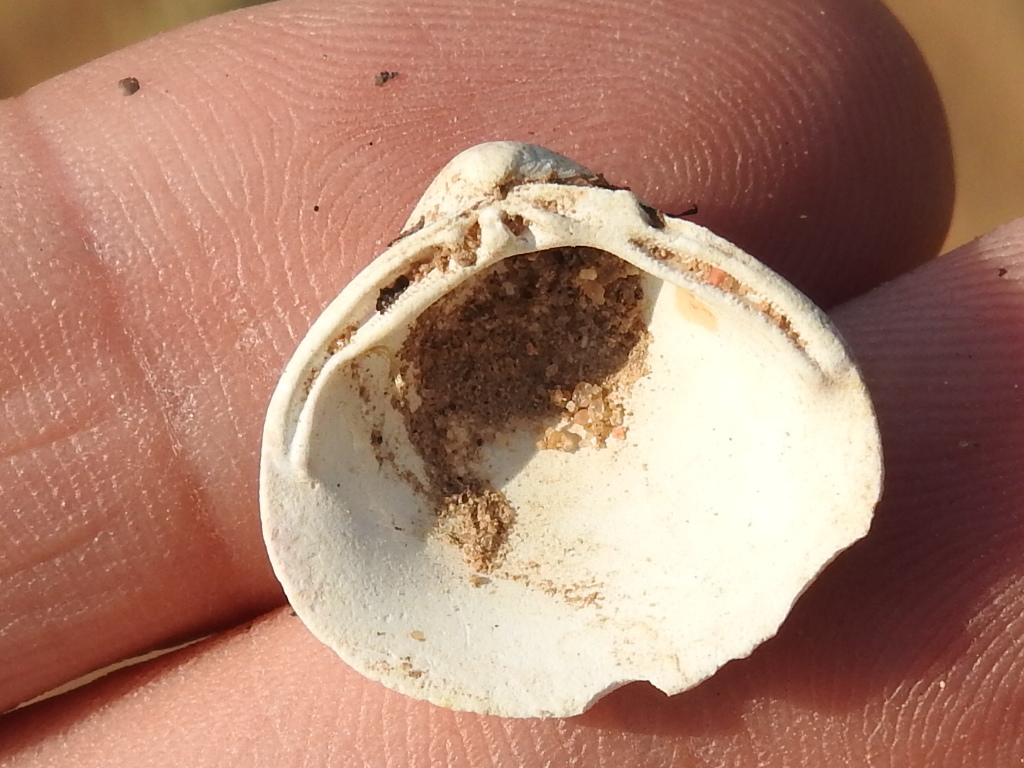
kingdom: Animalia
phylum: Mollusca
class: Bivalvia
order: Venerida
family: Cyrenidae
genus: Corbicula
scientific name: Corbicula fluminea
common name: Asian clam
